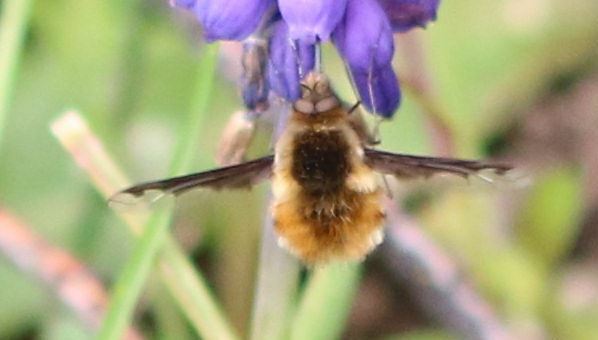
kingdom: Animalia
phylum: Arthropoda
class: Insecta
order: Diptera
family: Bombyliidae
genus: Bombylius
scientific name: Bombylius major
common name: Bee fly
